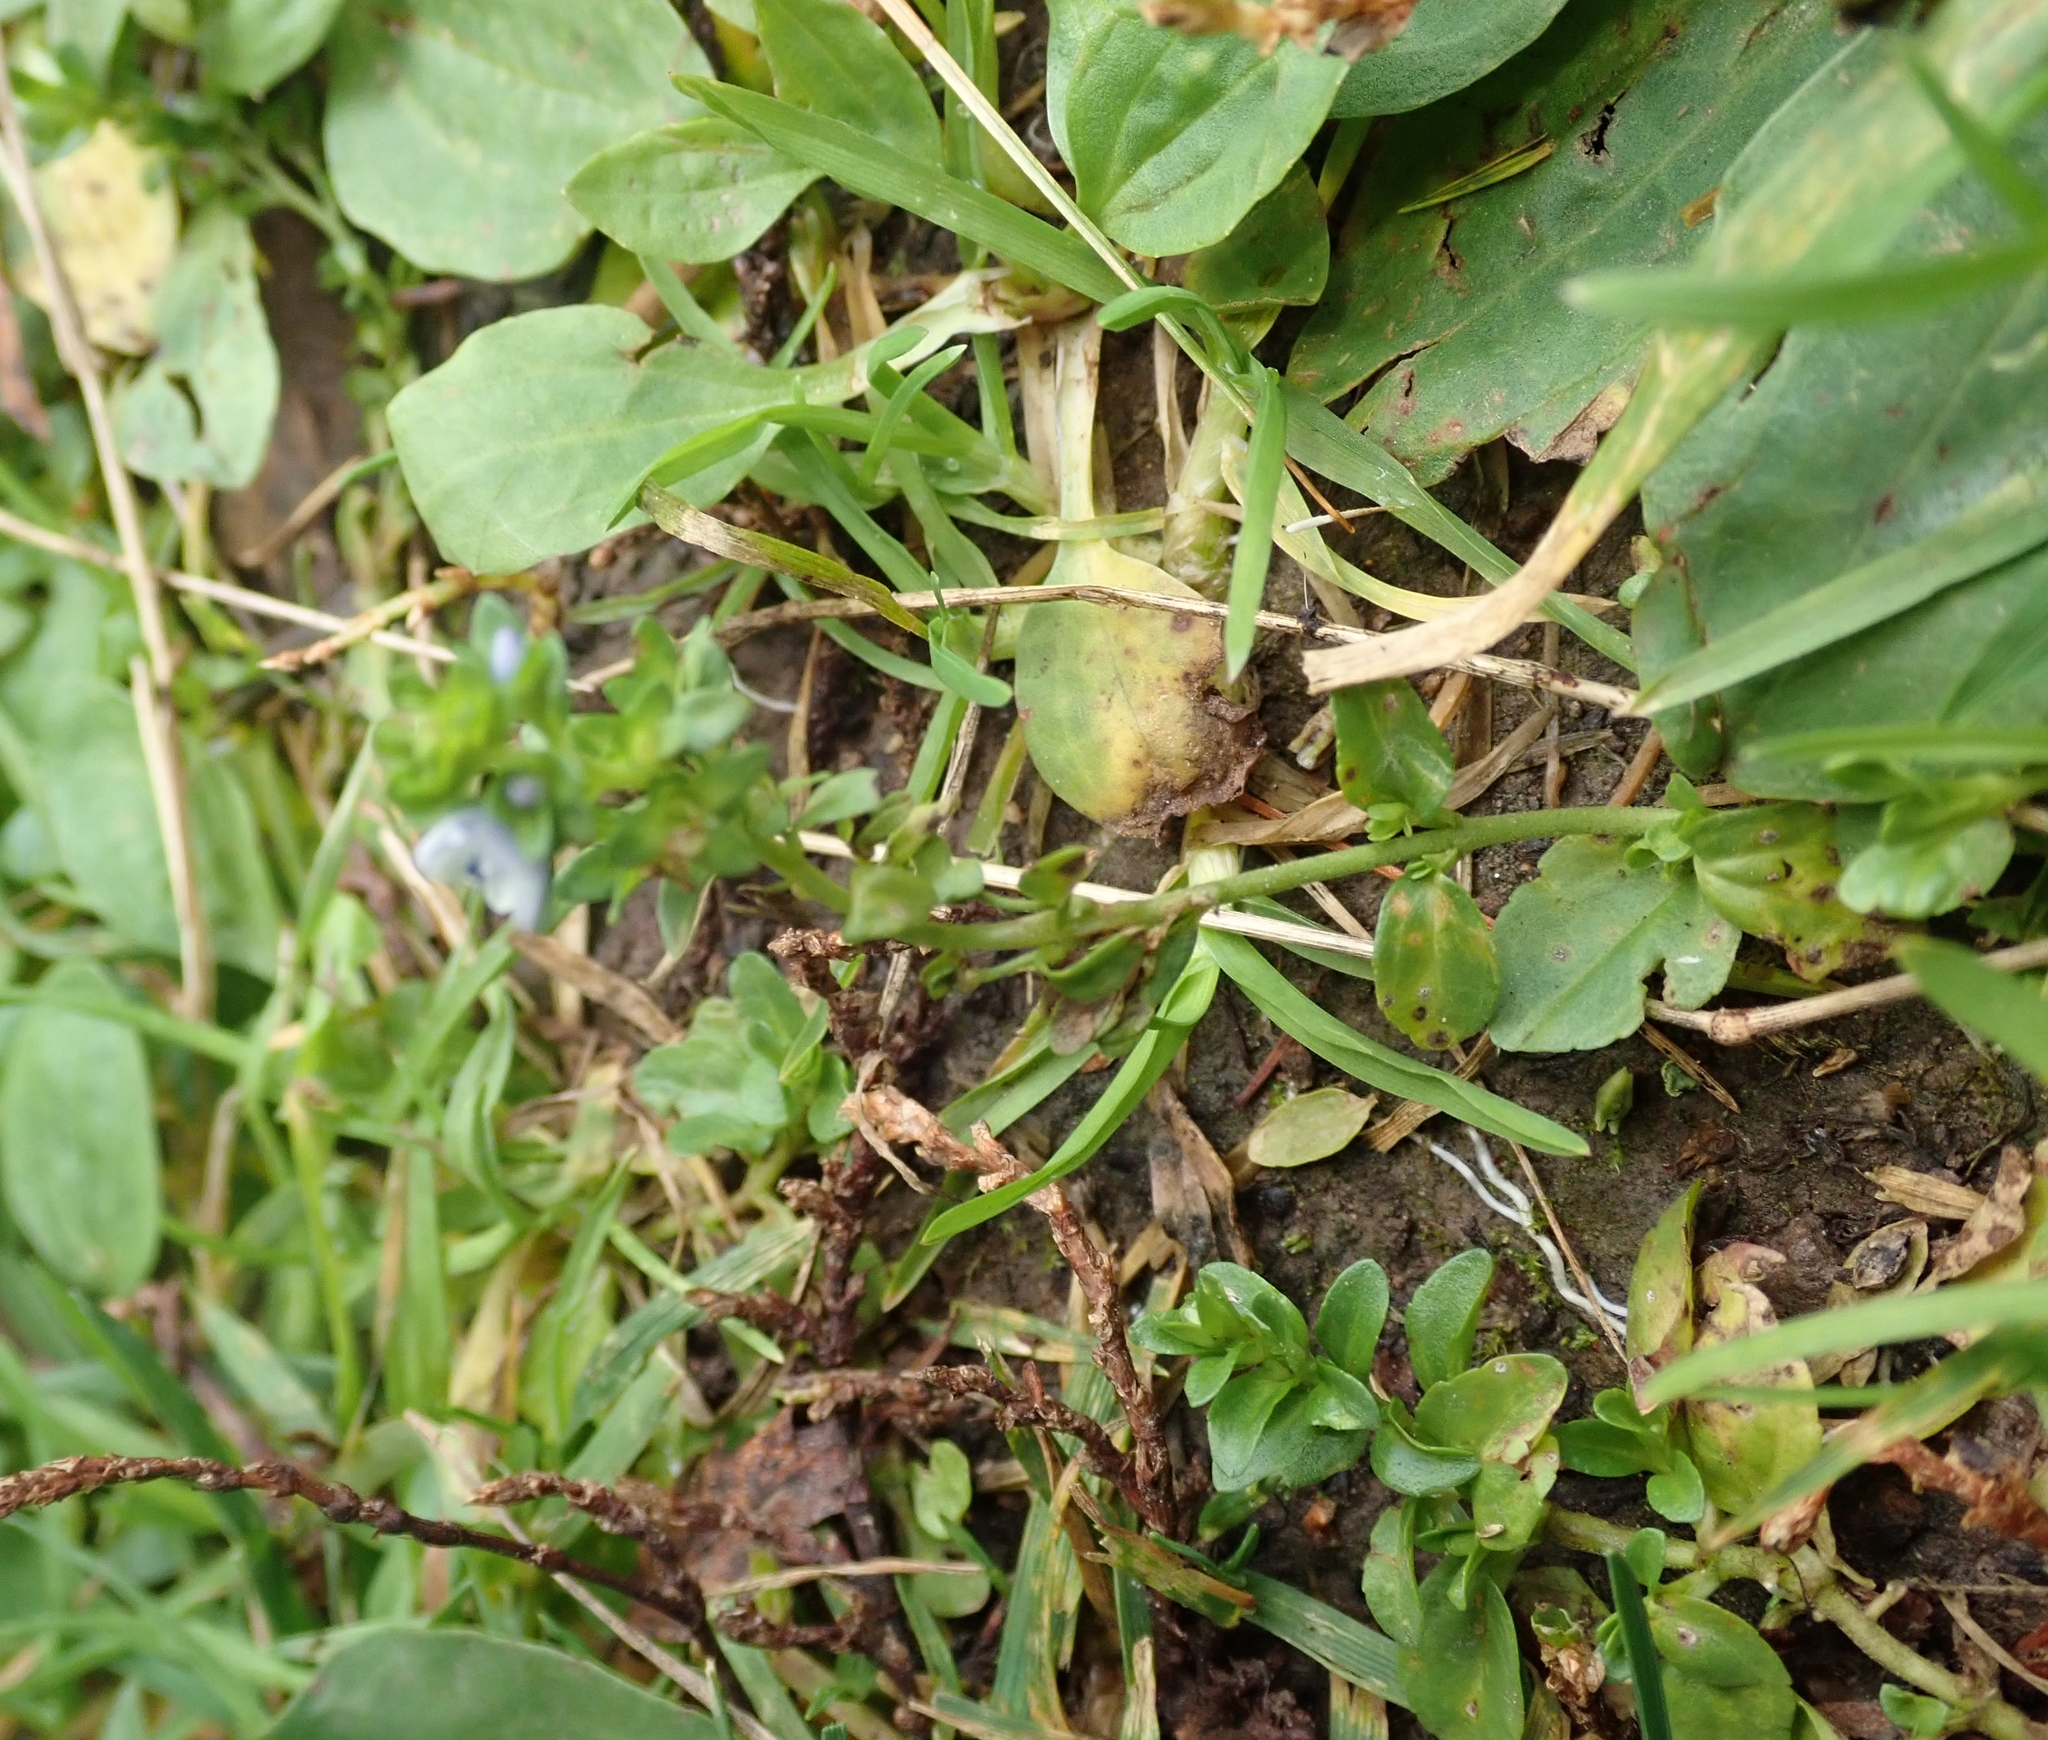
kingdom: Plantae
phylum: Tracheophyta
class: Magnoliopsida
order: Lamiales
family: Plantaginaceae
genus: Veronica
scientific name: Veronica serpyllifolia
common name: Thyme-leaved speedwell
